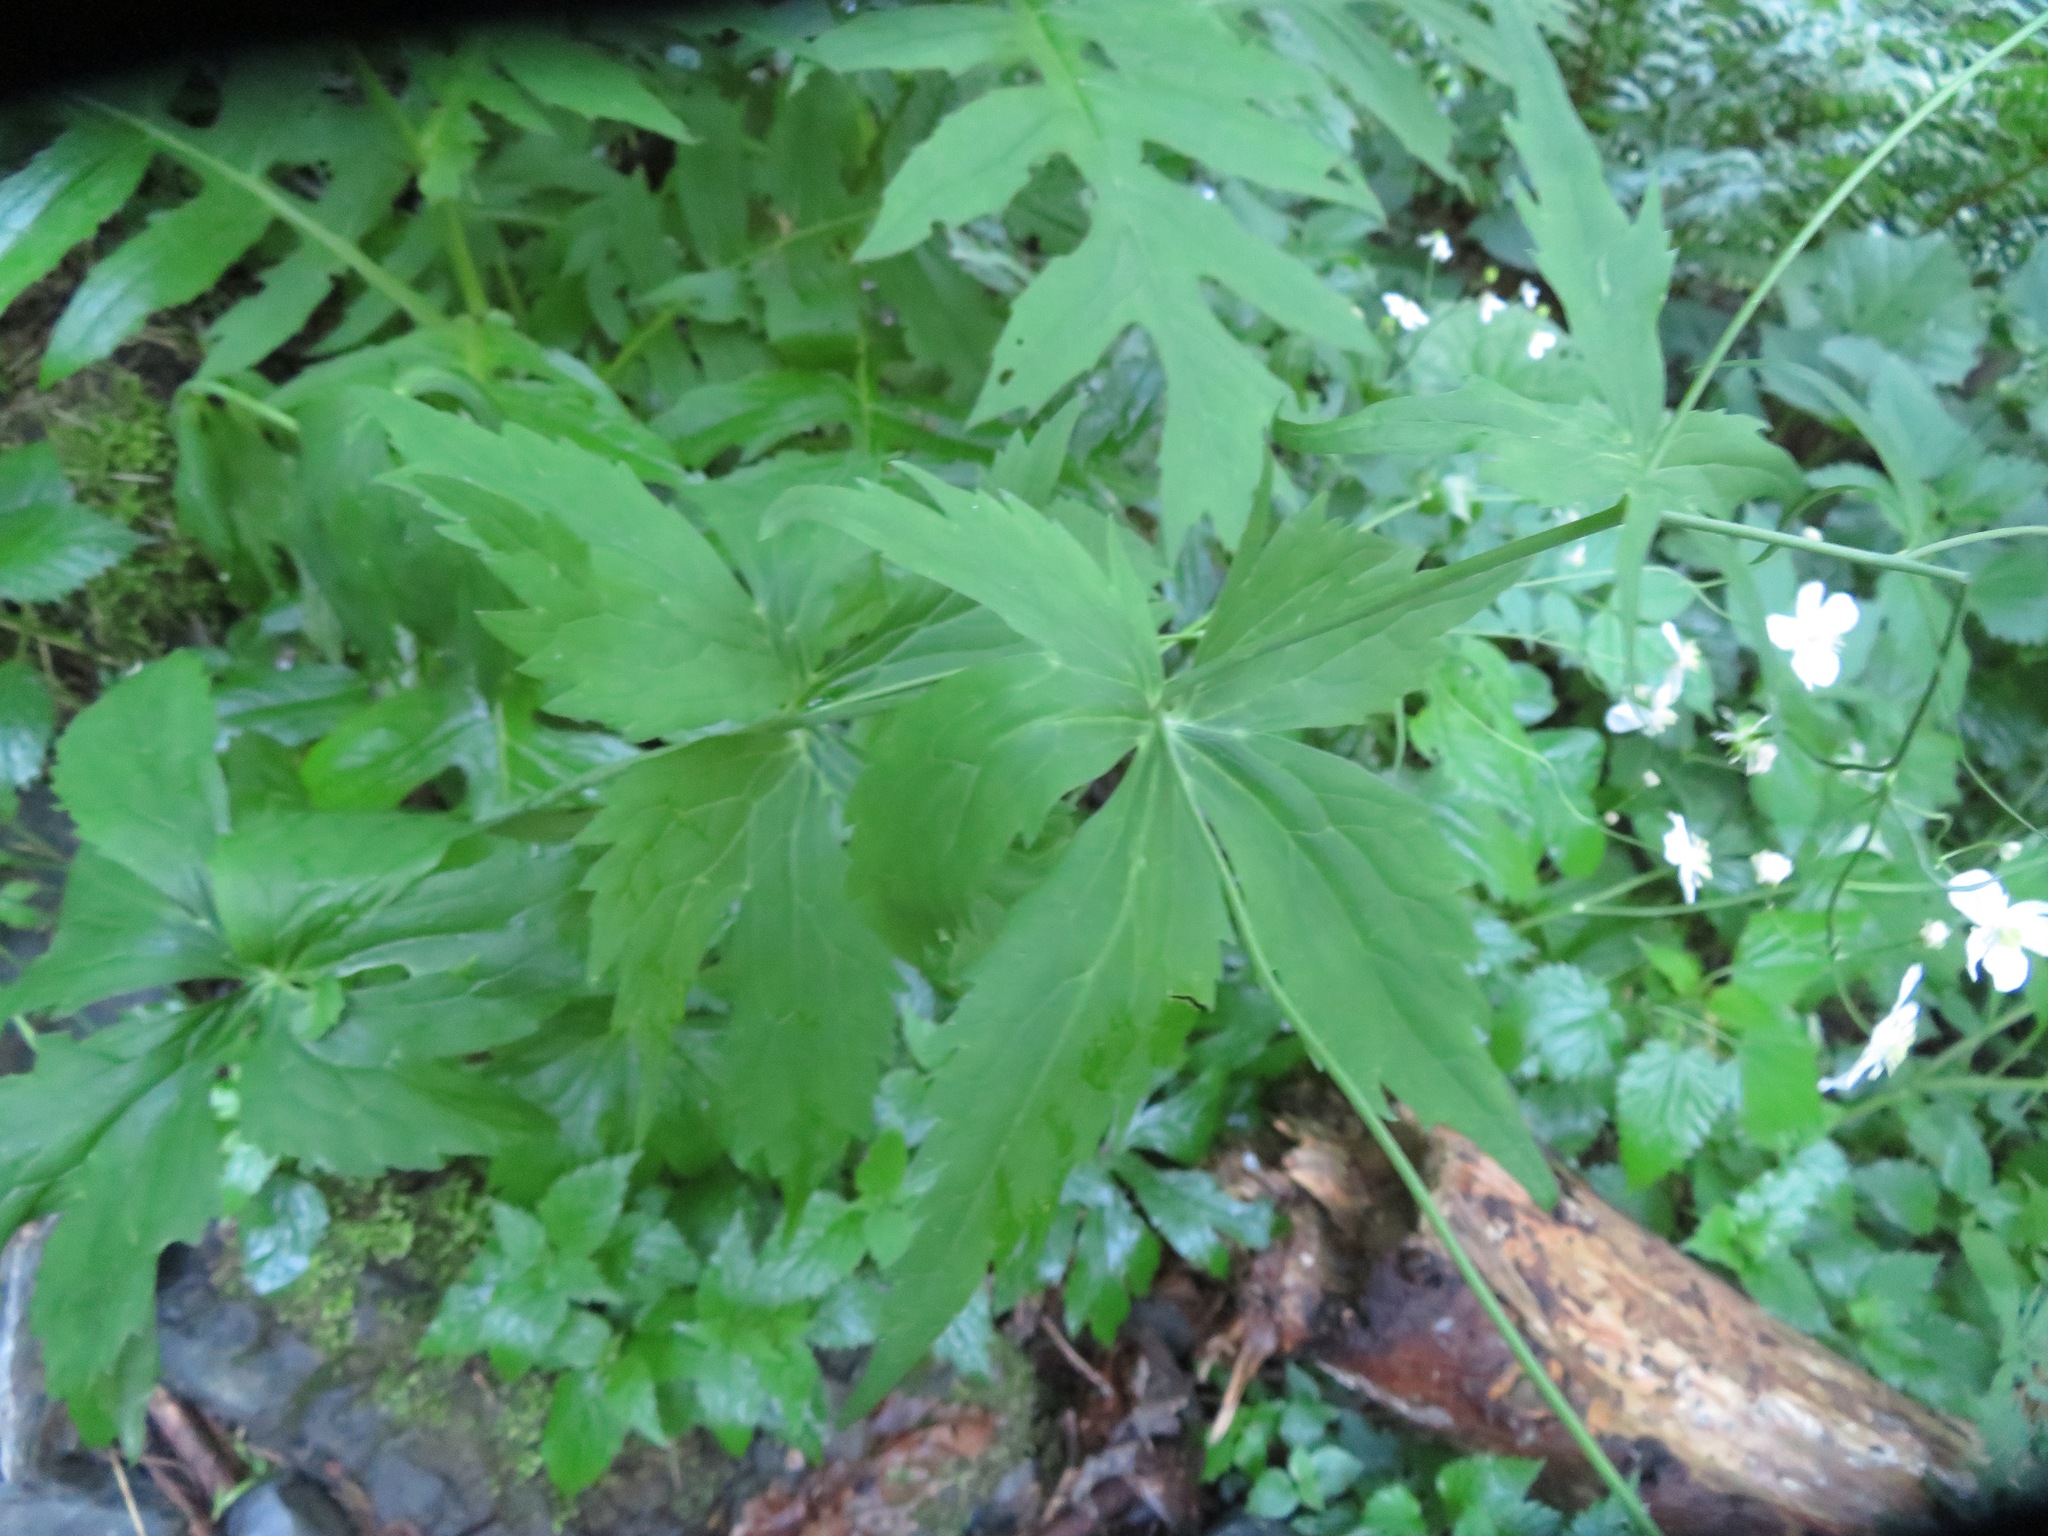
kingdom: Plantae
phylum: Tracheophyta
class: Magnoliopsida
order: Ranunculales
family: Ranunculaceae
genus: Ranunculus
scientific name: Ranunculus platanifolius
